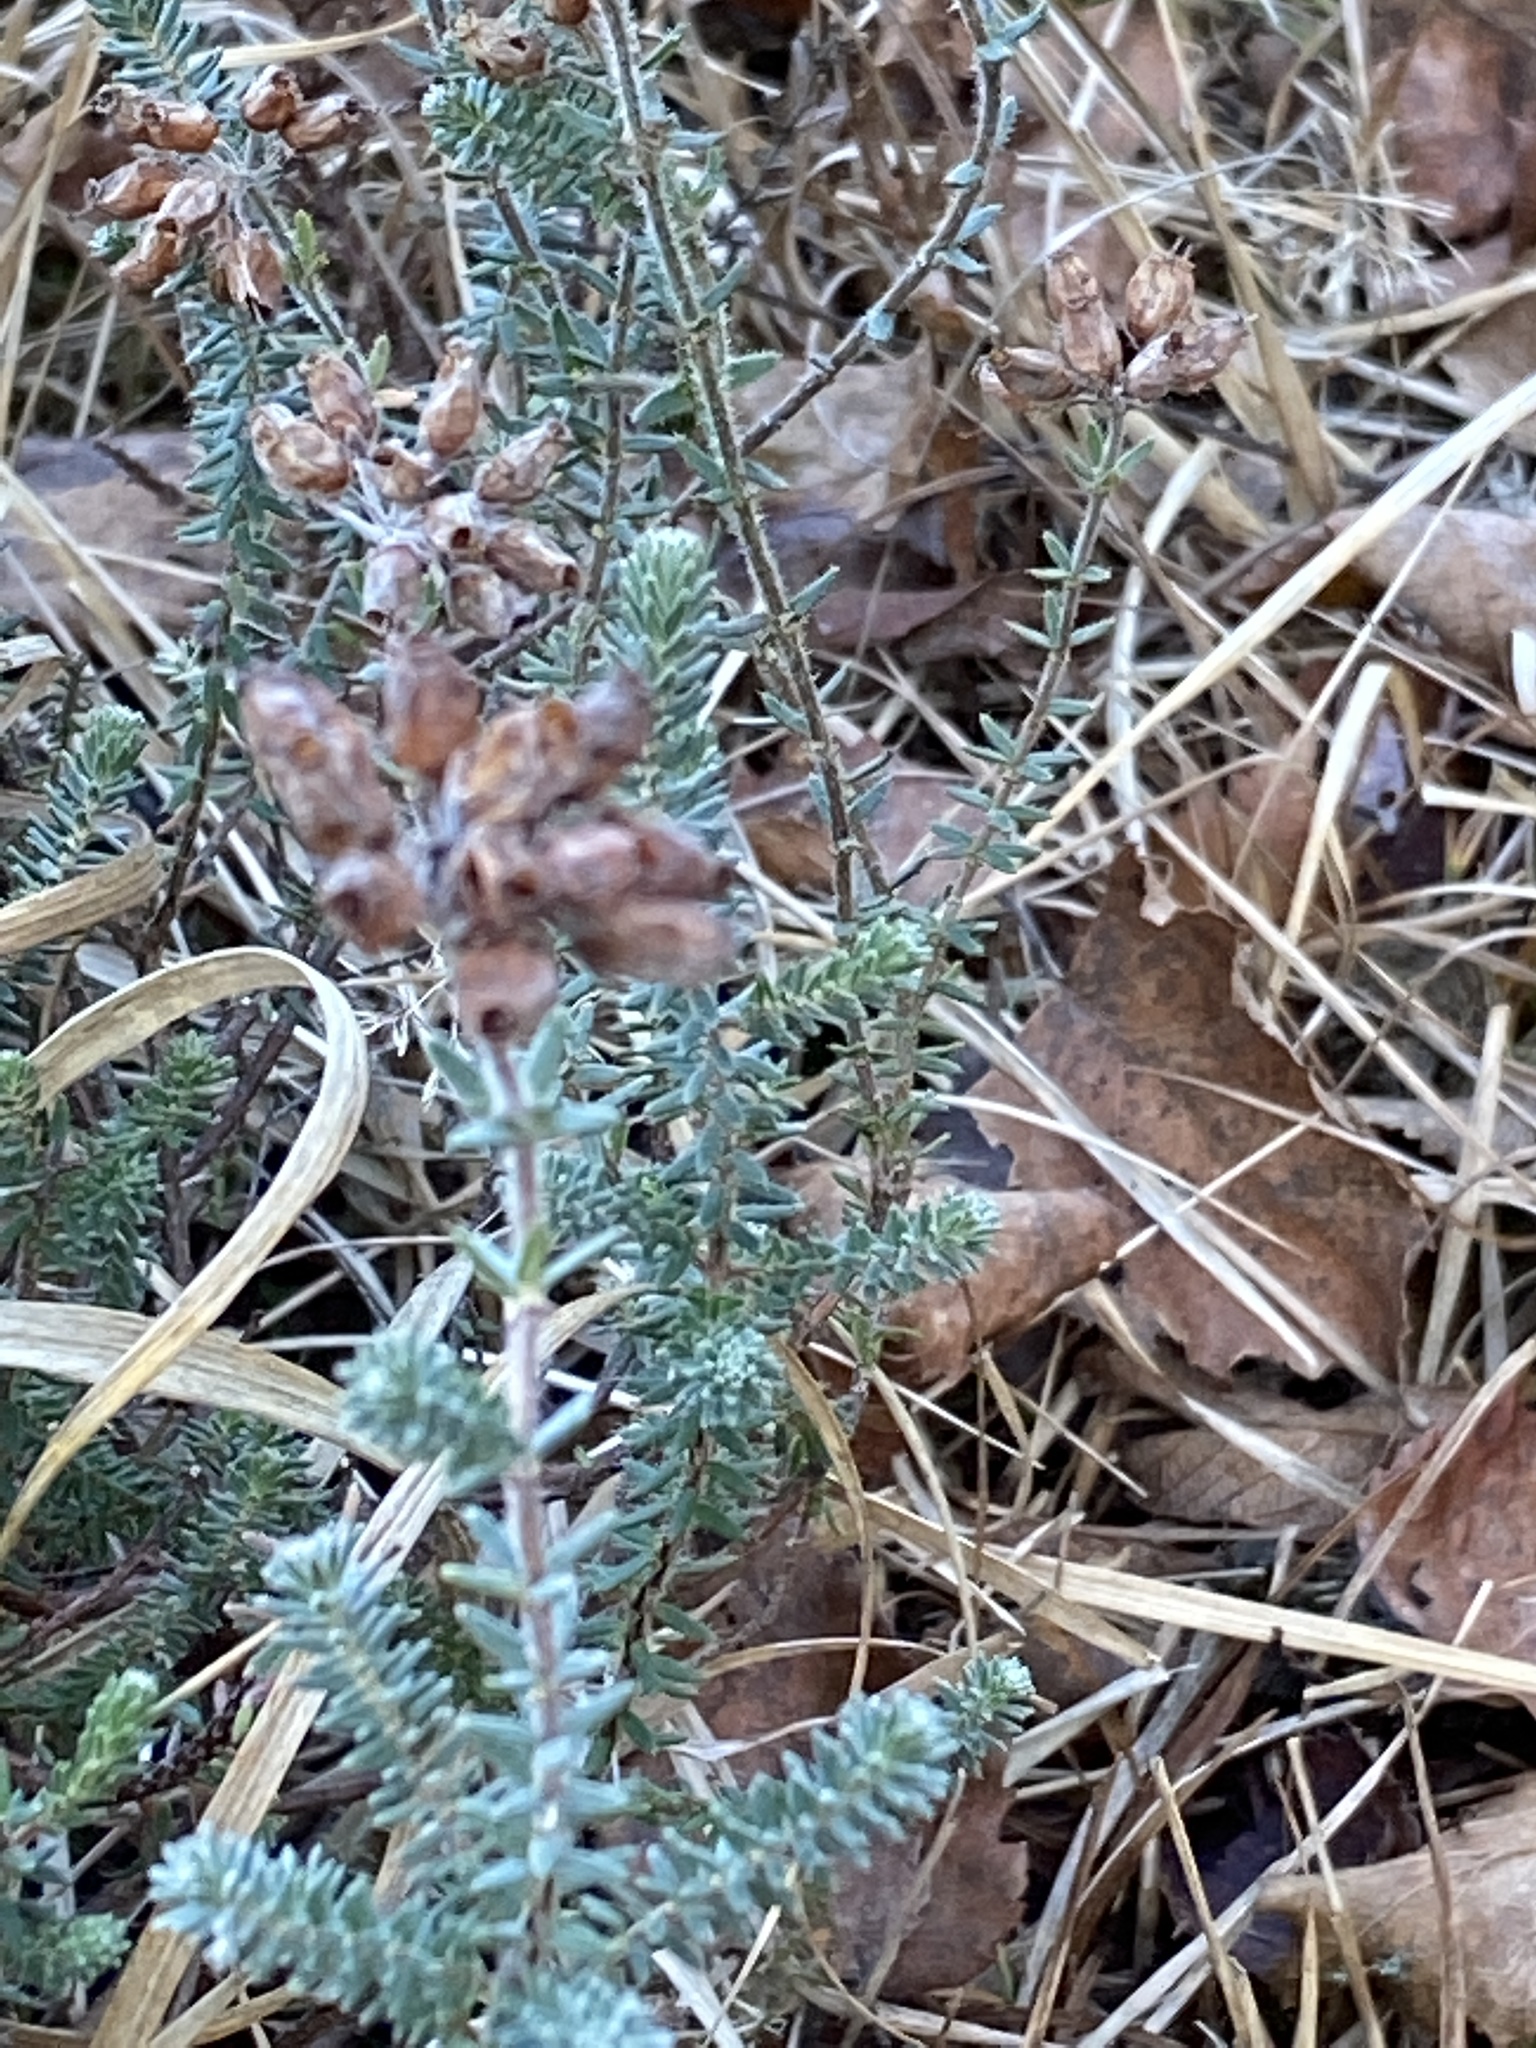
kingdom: Plantae
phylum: Tracheophyta
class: Magnoliopsida
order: Ericales
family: Ericaceae
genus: Erica
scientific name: Erica tetralix
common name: Cross-leaved heath
